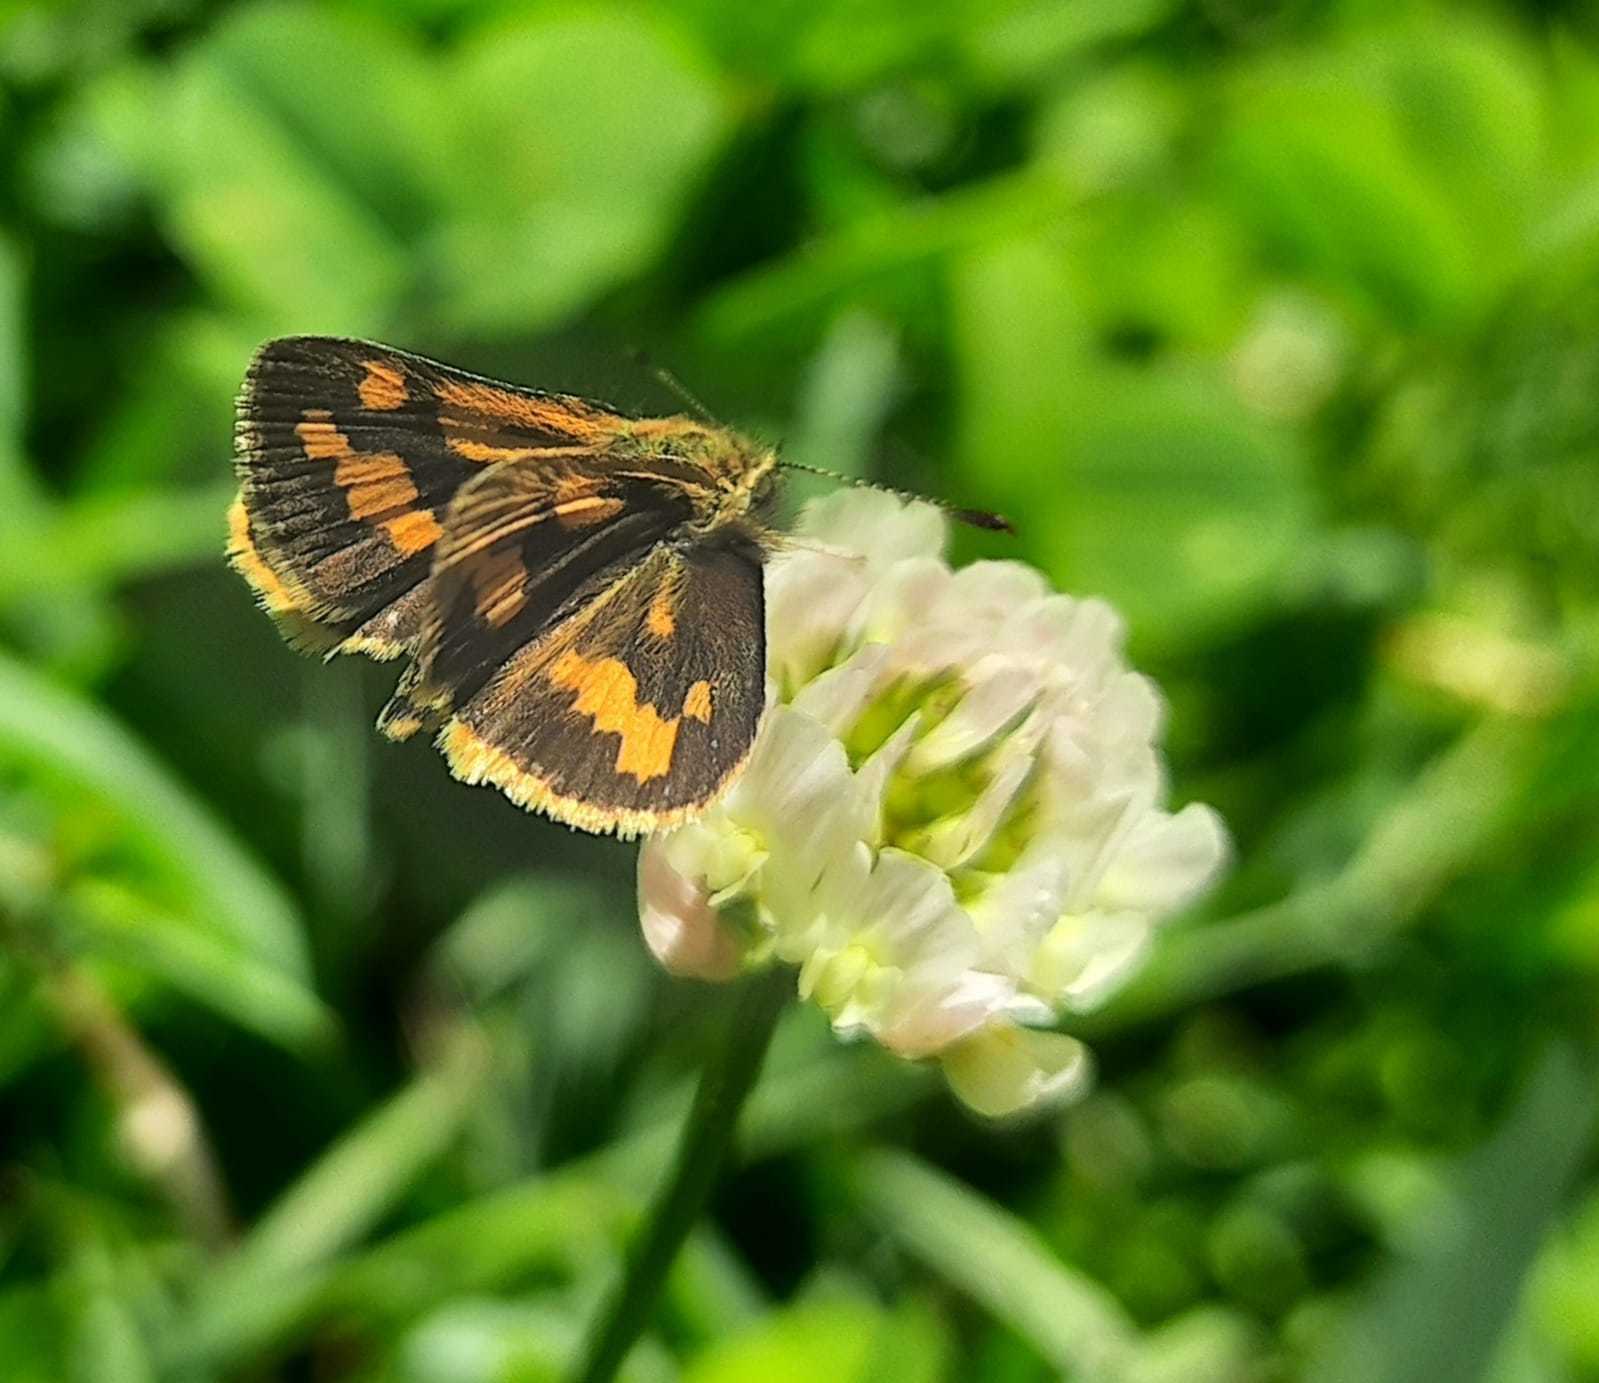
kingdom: Animalia
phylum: Arthropoda
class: Insecta
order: Lepidoptera
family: Hesperiidae
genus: Ocybadistes
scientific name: Ocybadistes walkeri
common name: Yellow-banded dart
